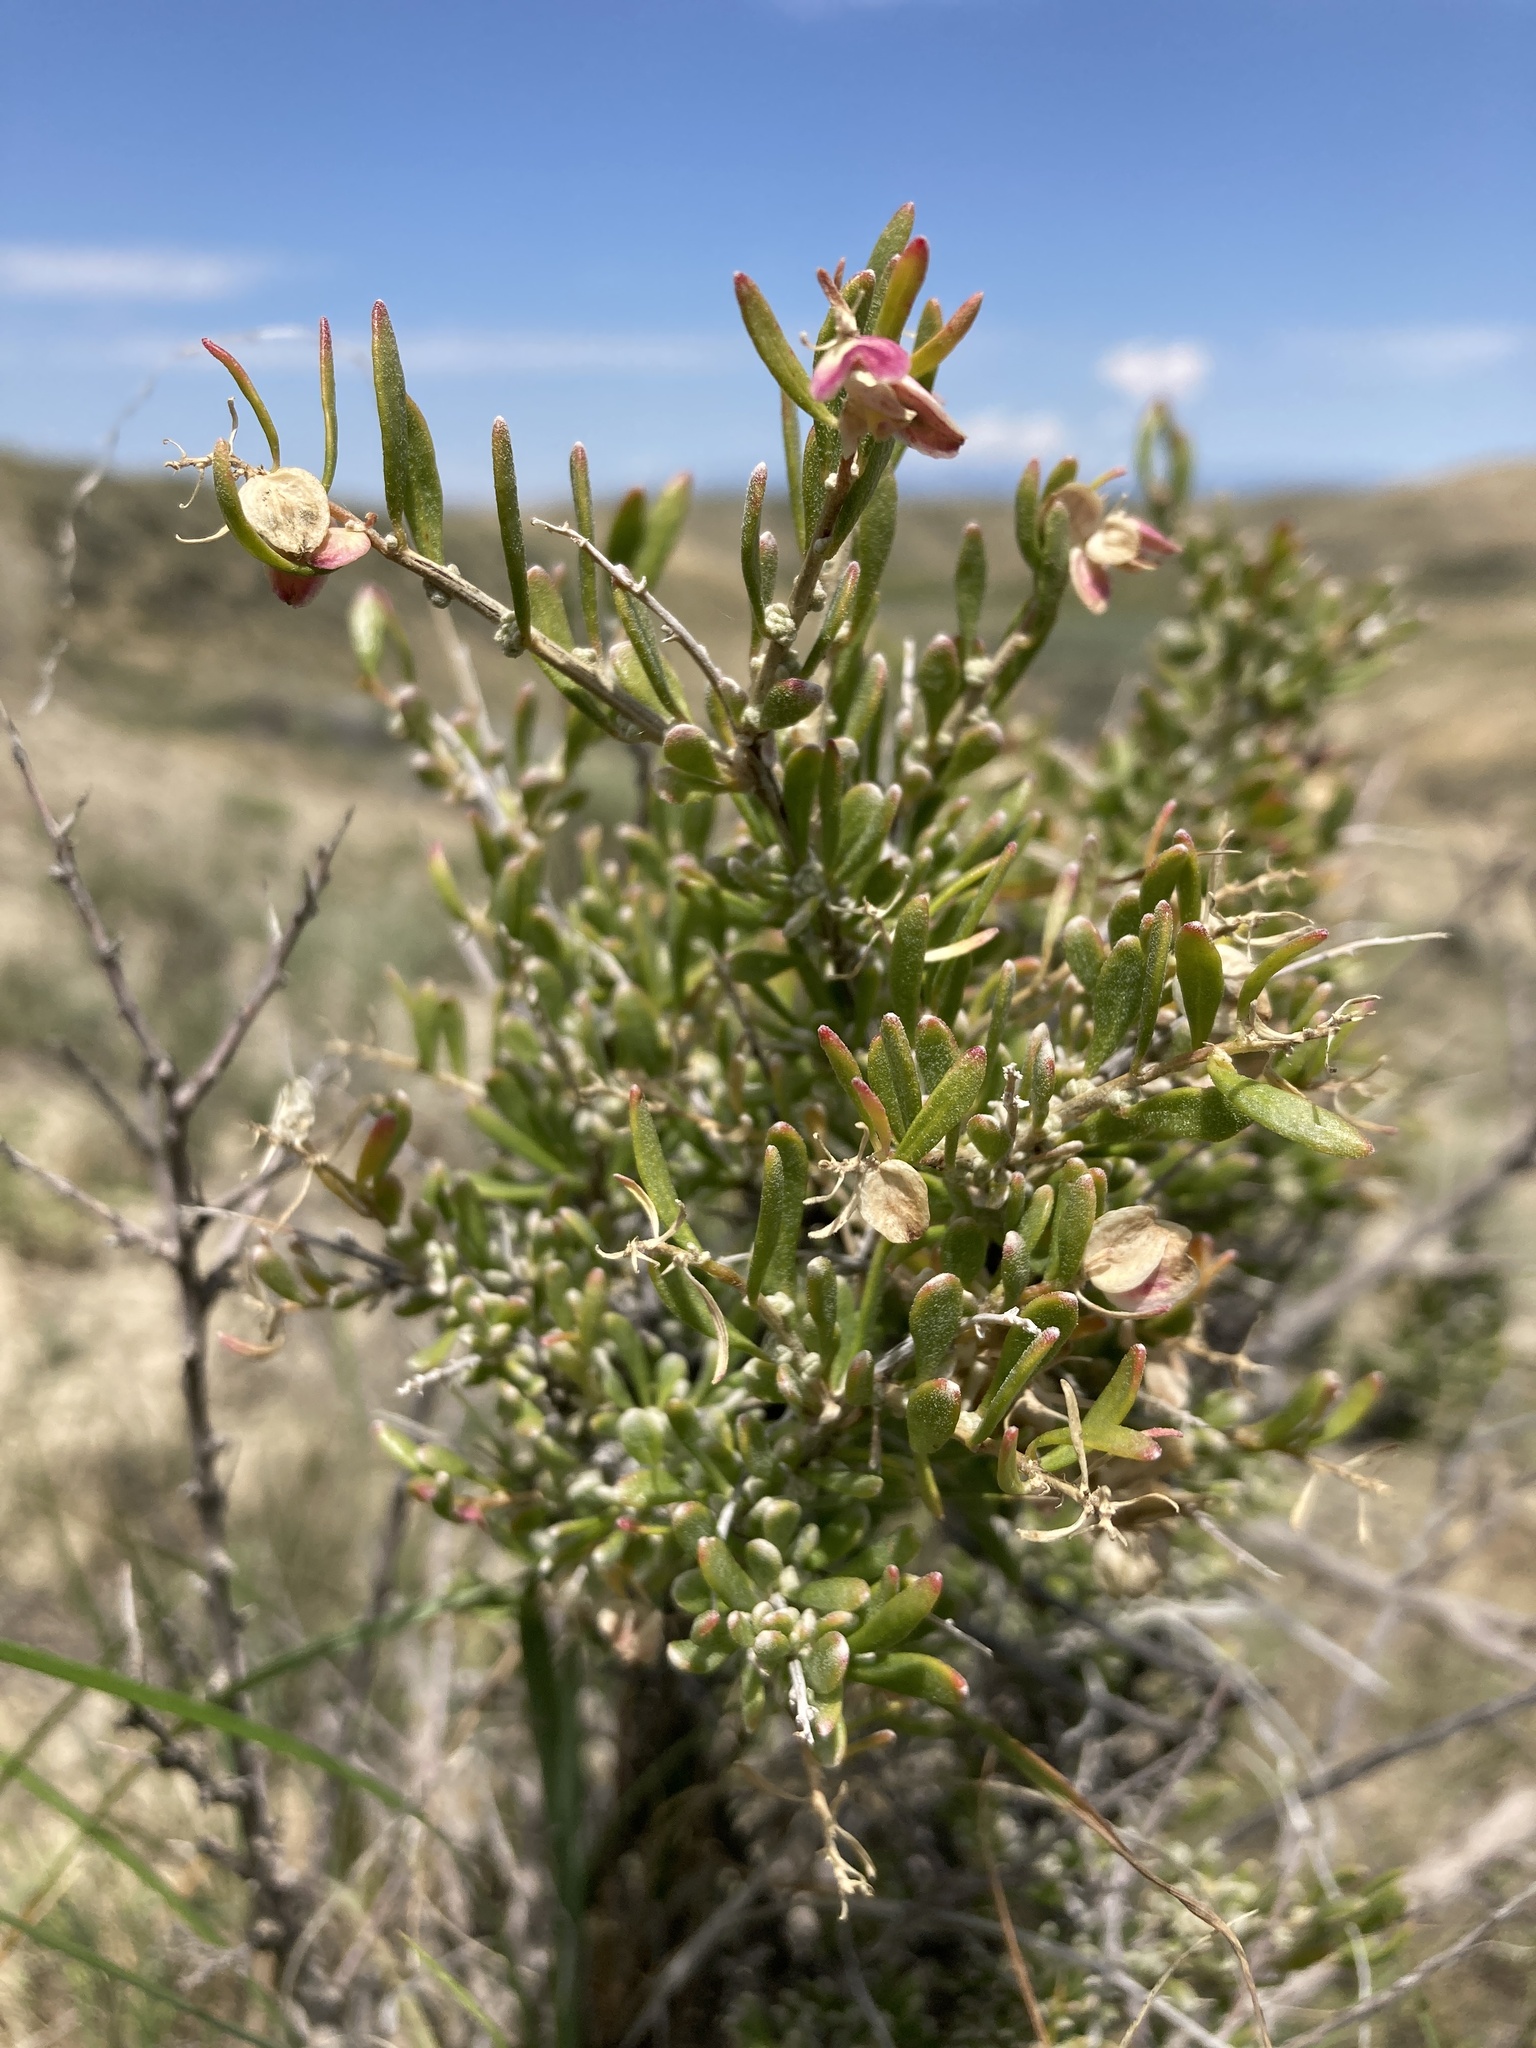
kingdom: Plantae
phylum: Tracheophyta
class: Magnoliopsida
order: Caryophyllales
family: Amaranthaceae
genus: Grayia
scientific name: Grayia spinosa
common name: Spiny hopsage
